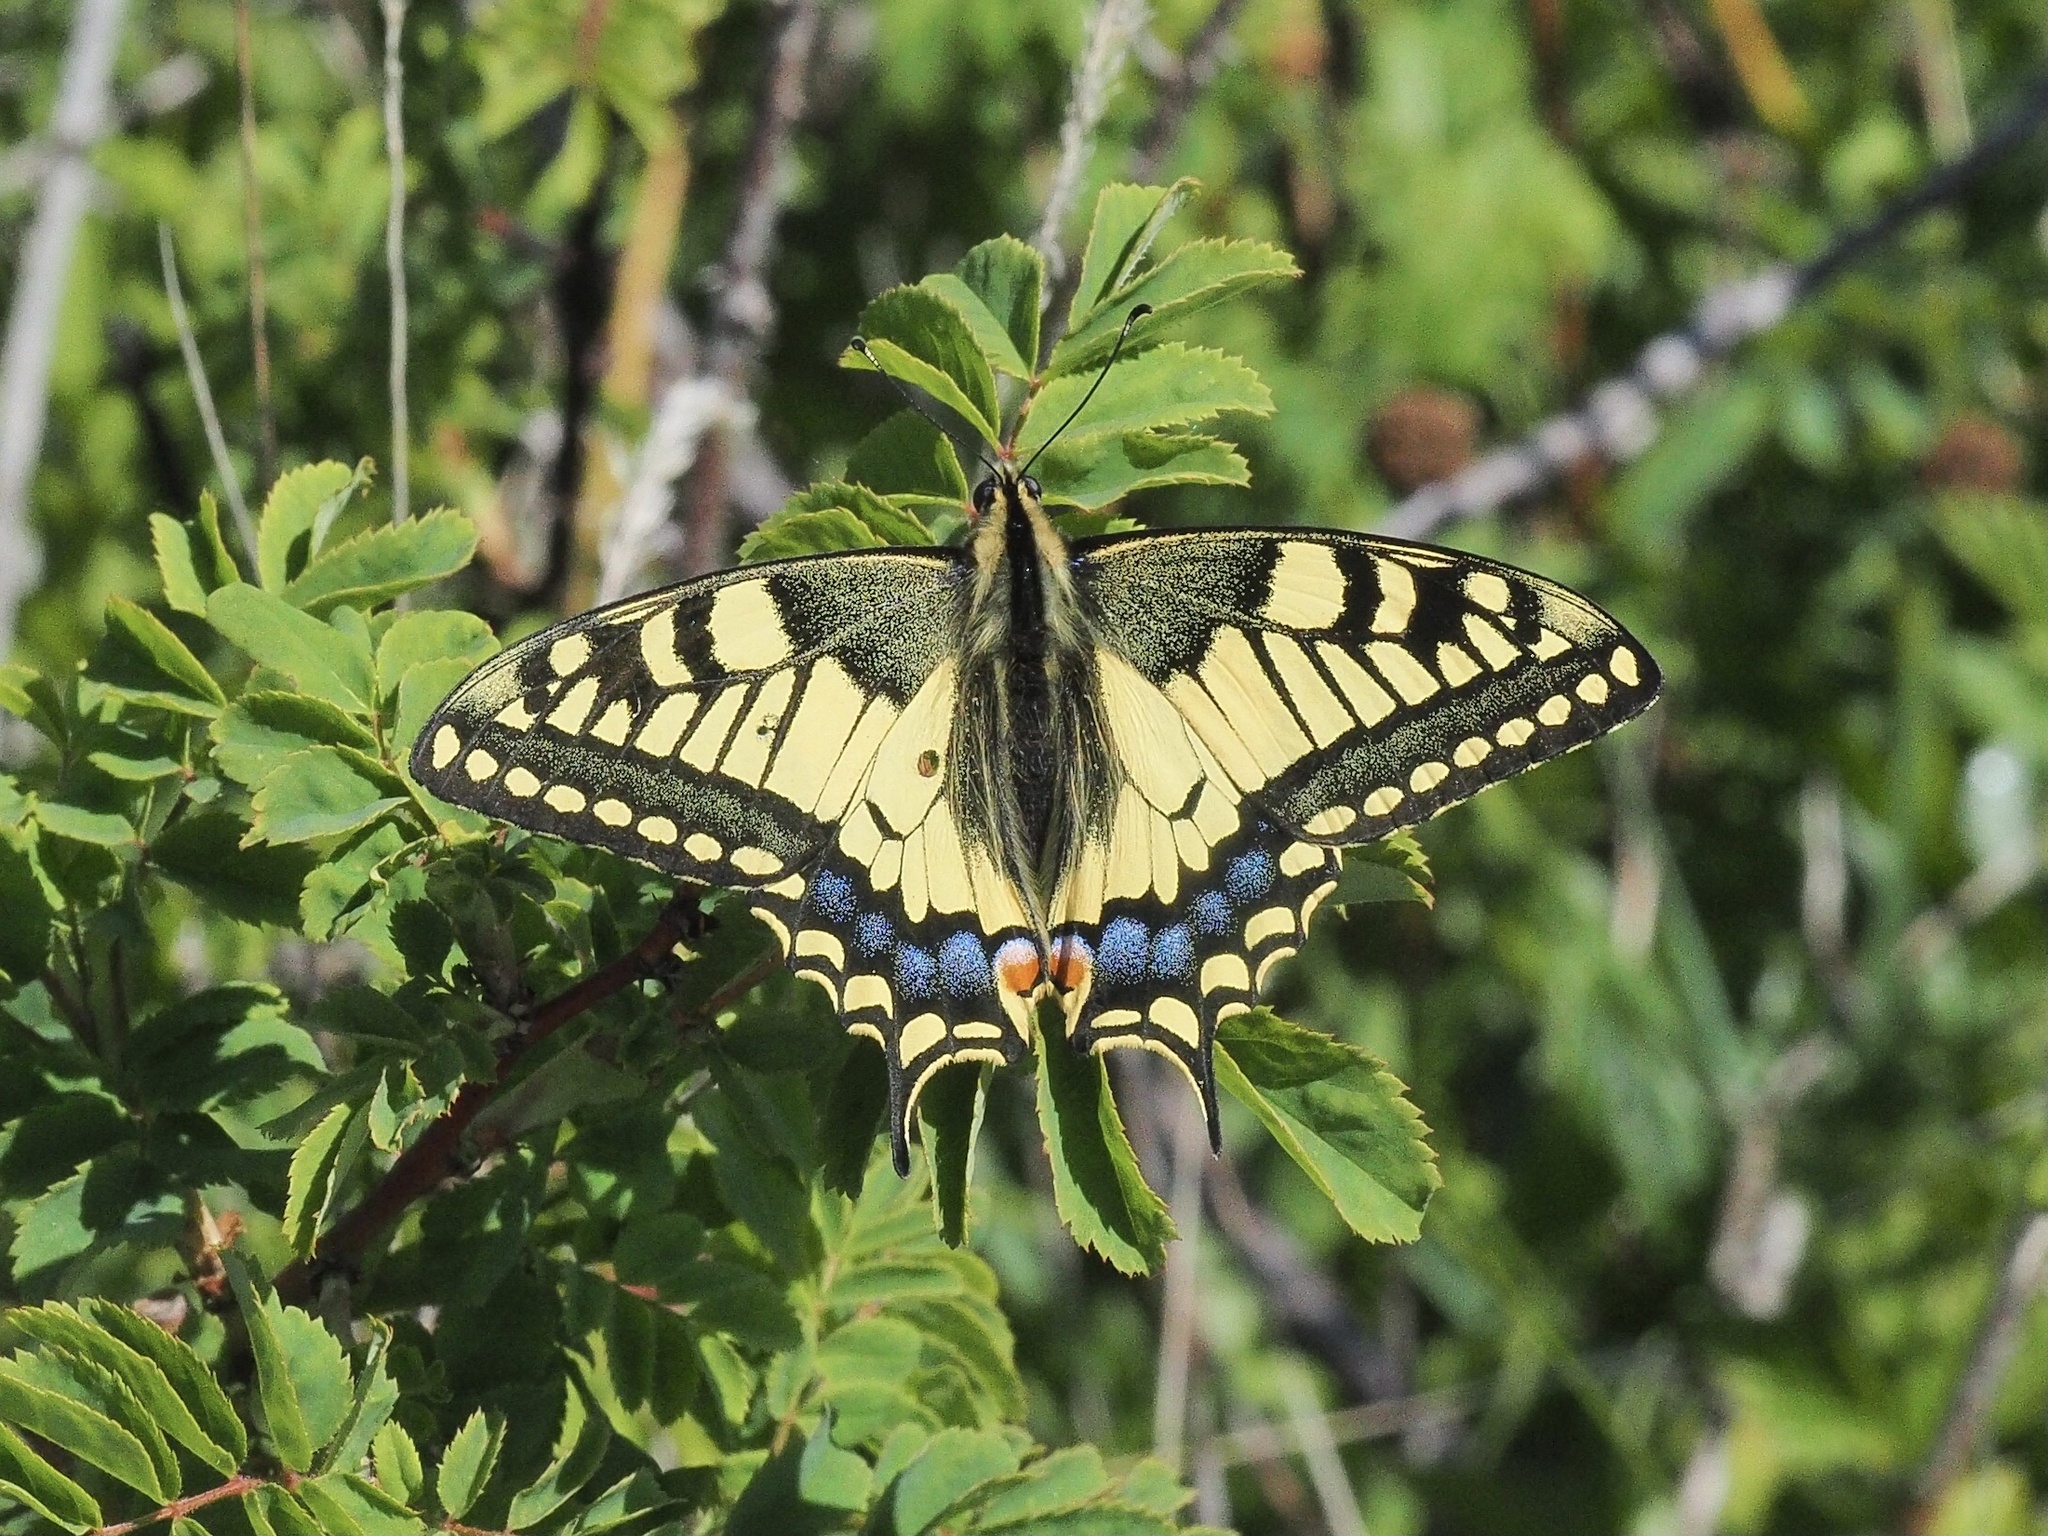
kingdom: Animalia
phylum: Arthropoda
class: Insecta
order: Lepidoptera
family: Papilionidae
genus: Papilio
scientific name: Papilio machaon
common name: Swallowtail
